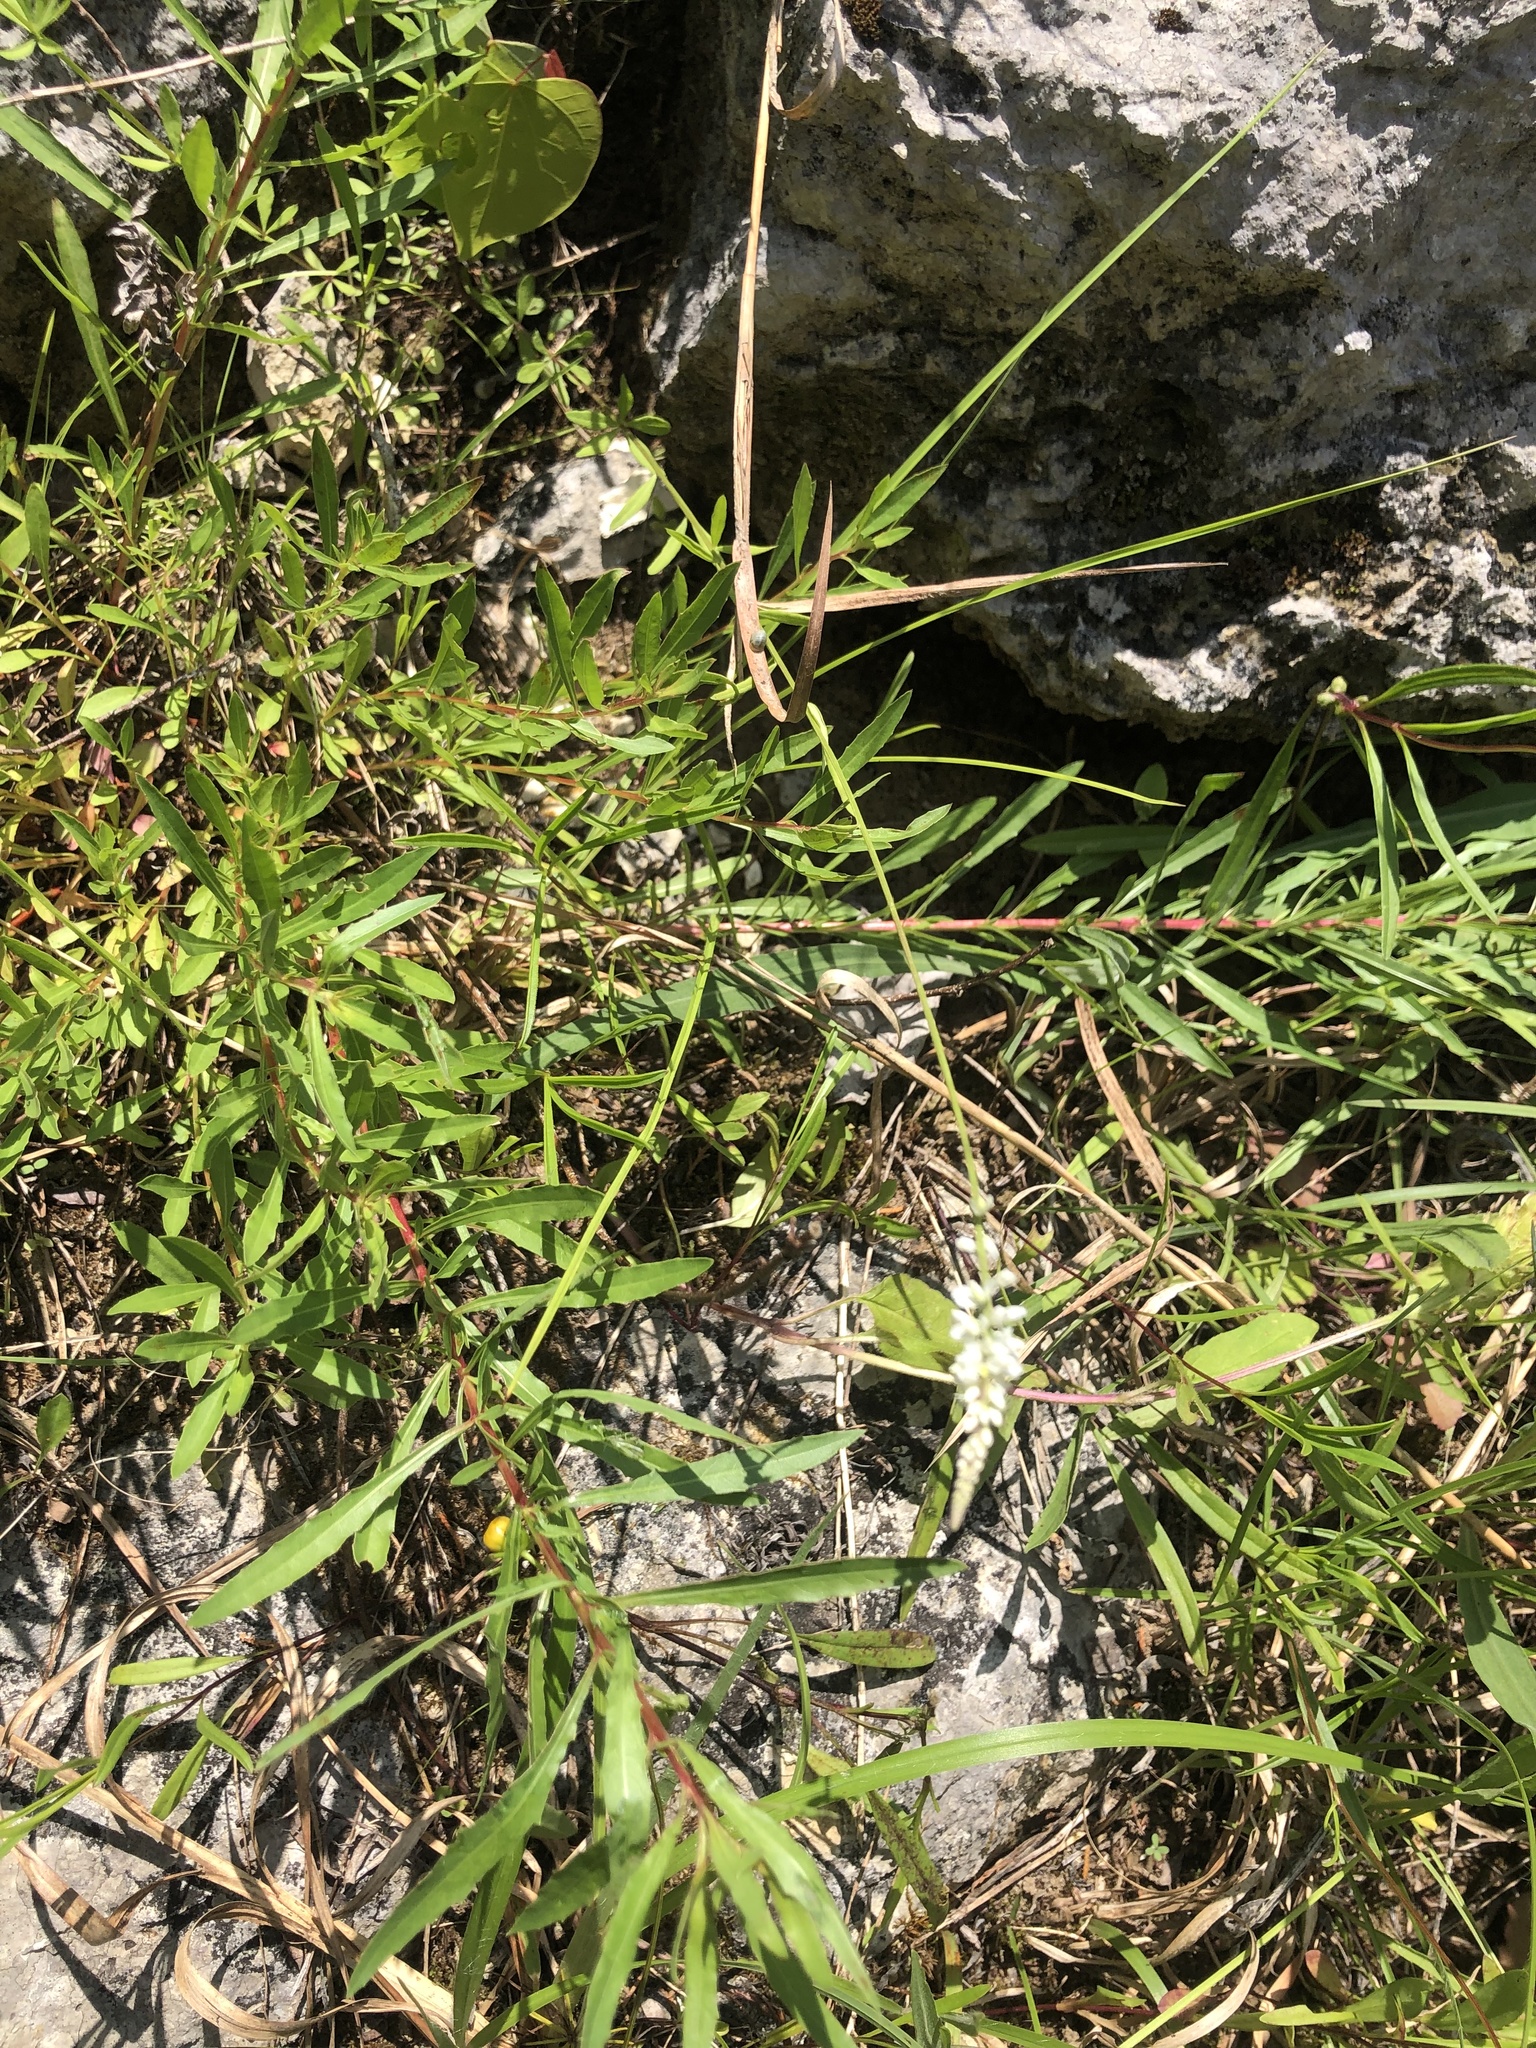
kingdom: Plantae
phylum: Tracheophyta
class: Magnoliopsida
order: Myrtales
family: Onagraceae
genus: Oenothera
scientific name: Oenothera filipes
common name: Slenderstalk beeblossom
